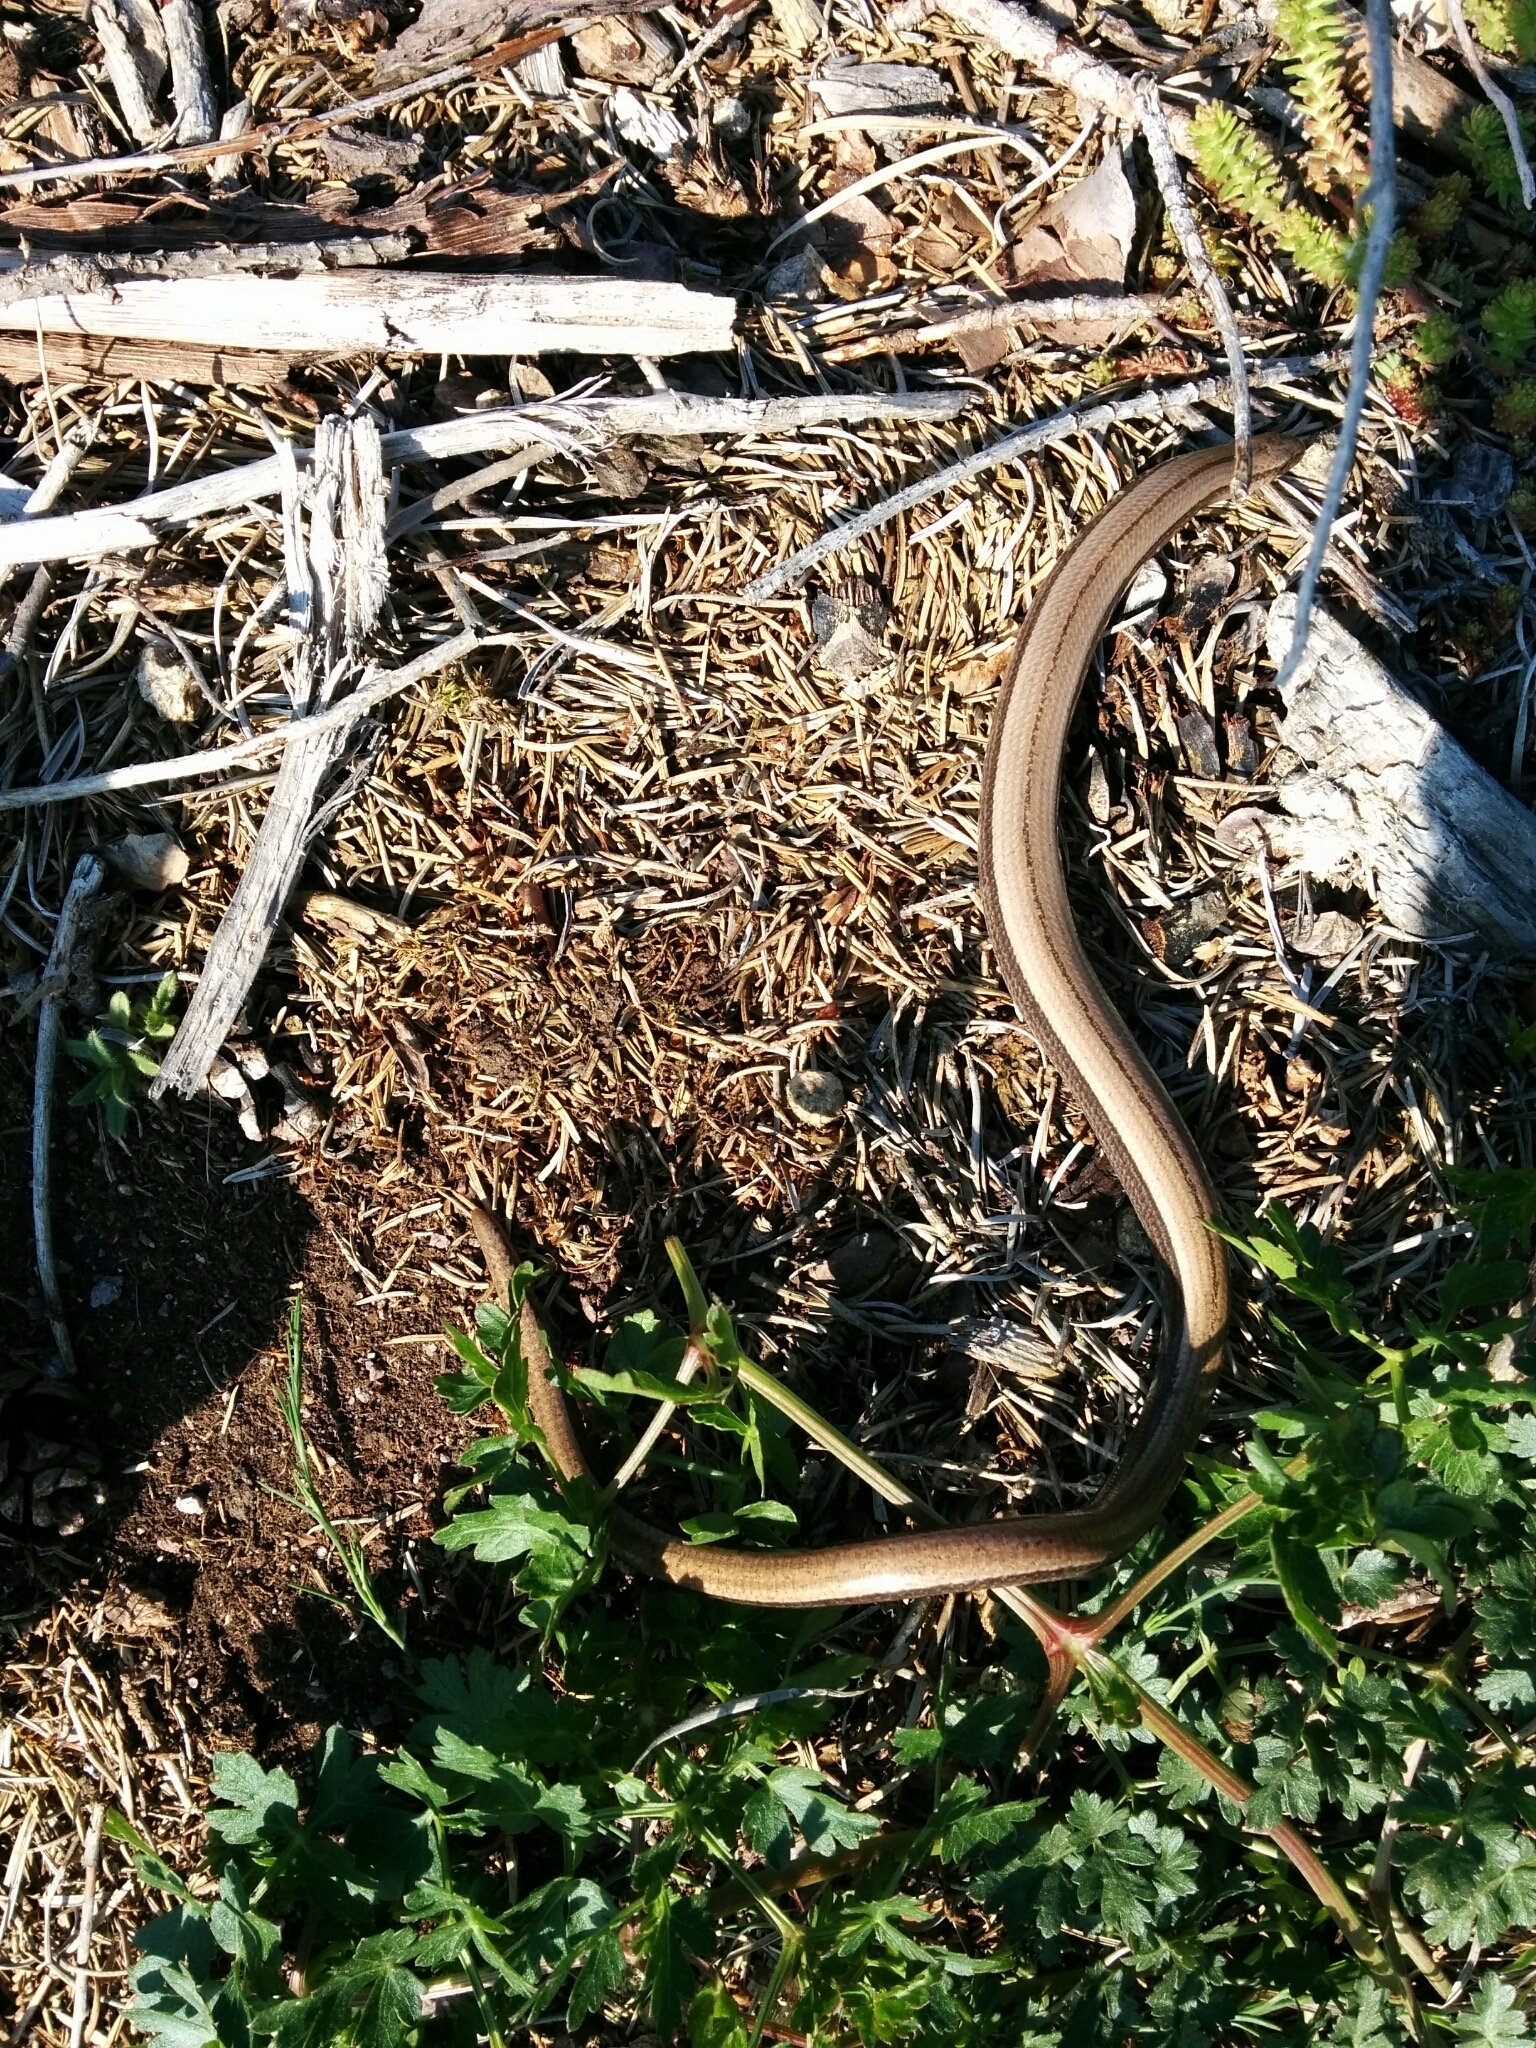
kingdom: Animalia
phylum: Chordata
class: Squamata
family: Anguidae
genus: Anguis
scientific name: Anguis veronensis
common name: Italian slow worm
